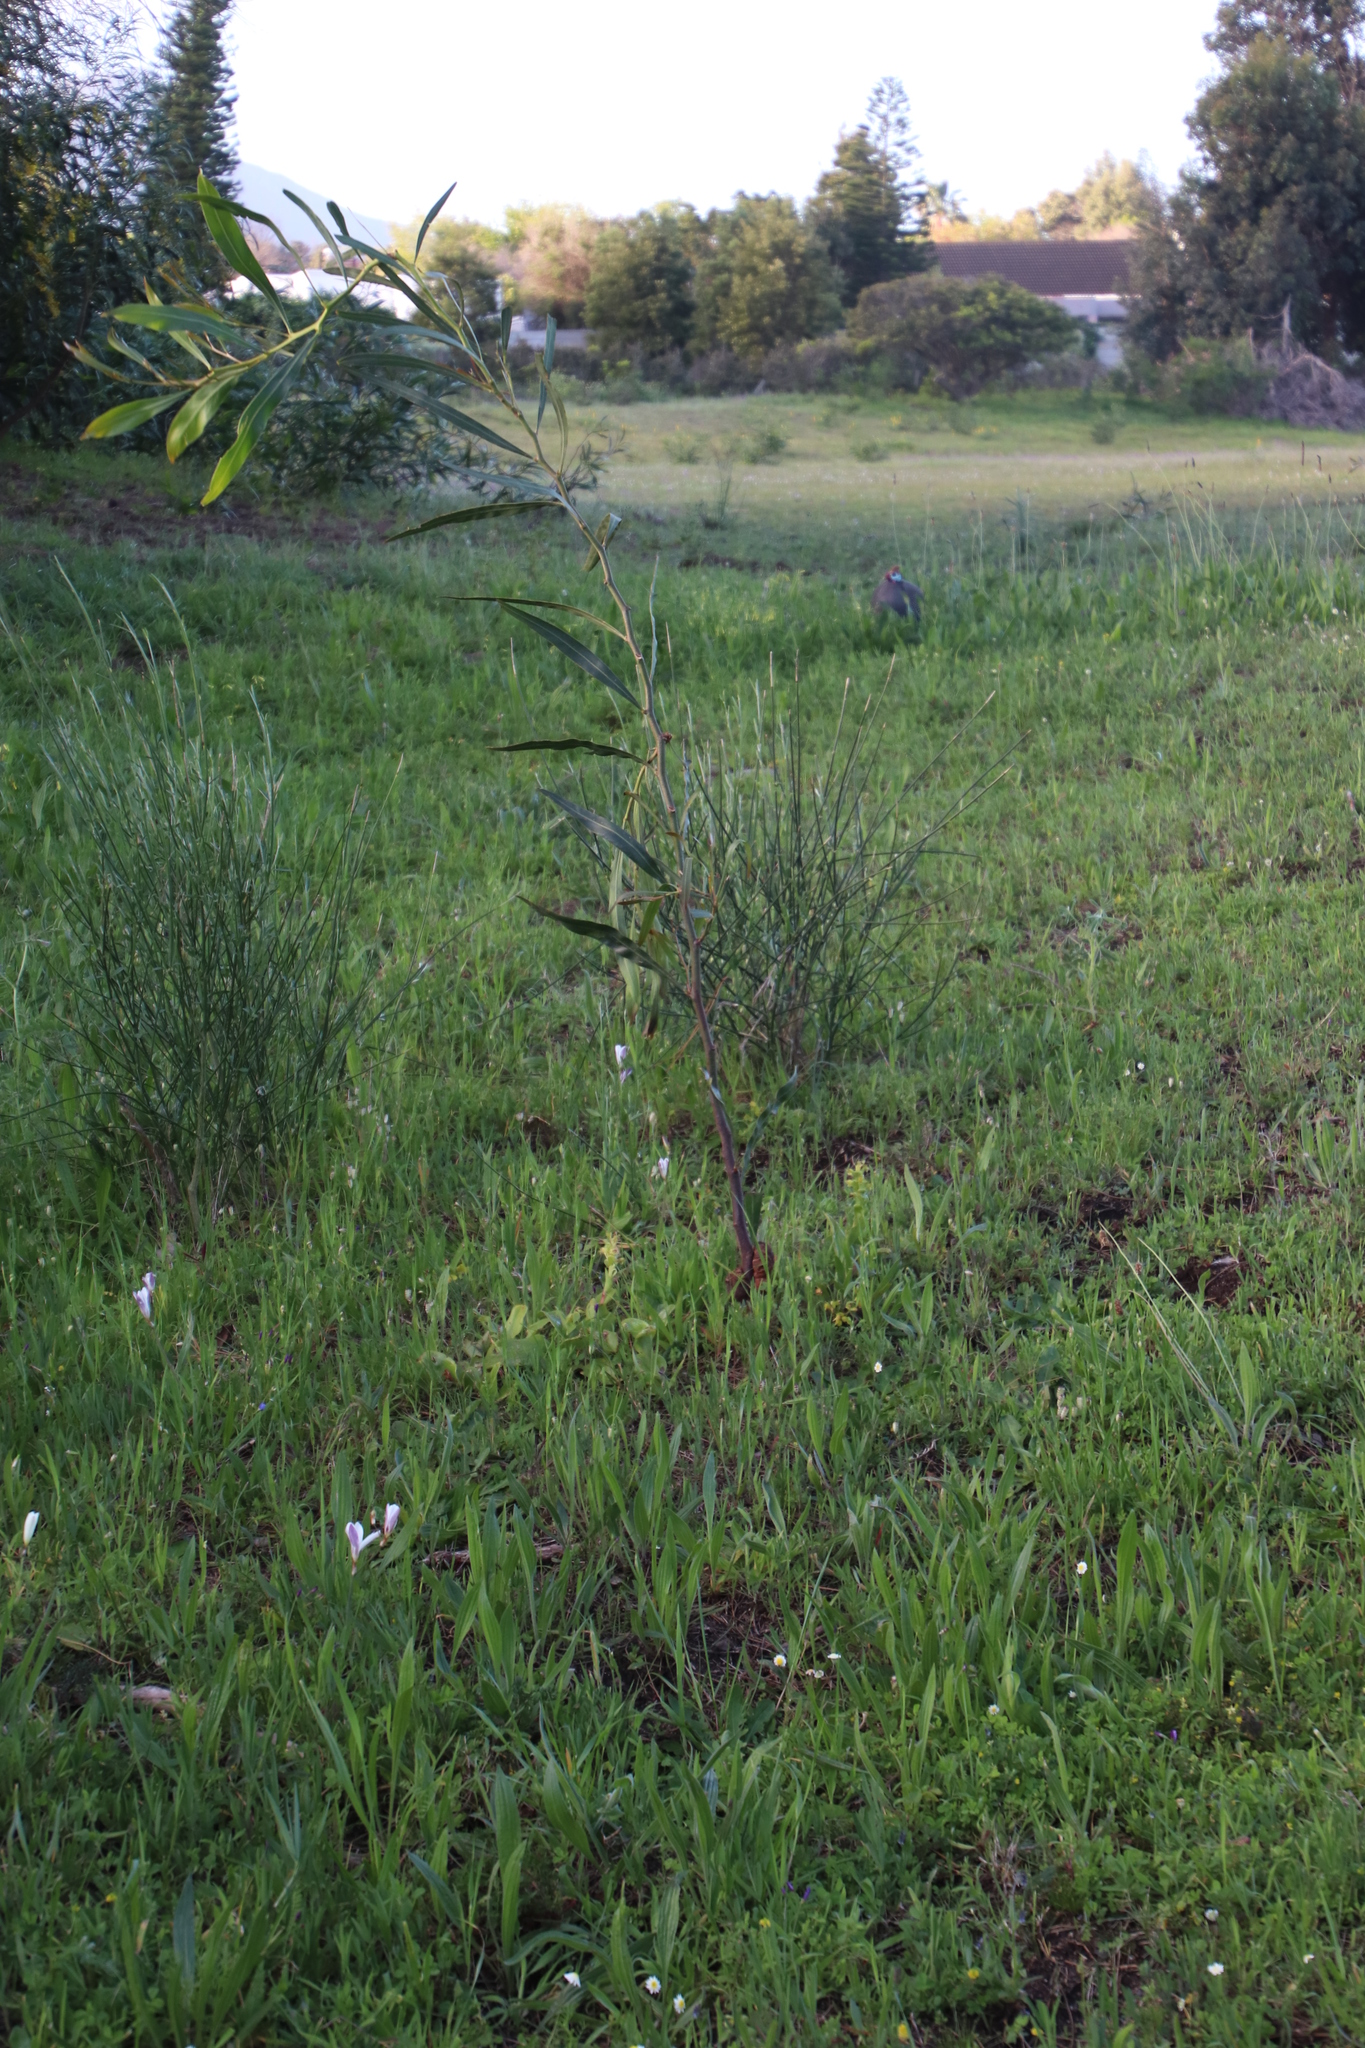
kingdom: Plantae
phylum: Tracheophyta
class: Magnoliopsida
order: Fabales
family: Fabaceae
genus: Spartium
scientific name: Spartium junceum
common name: Spanish broom
